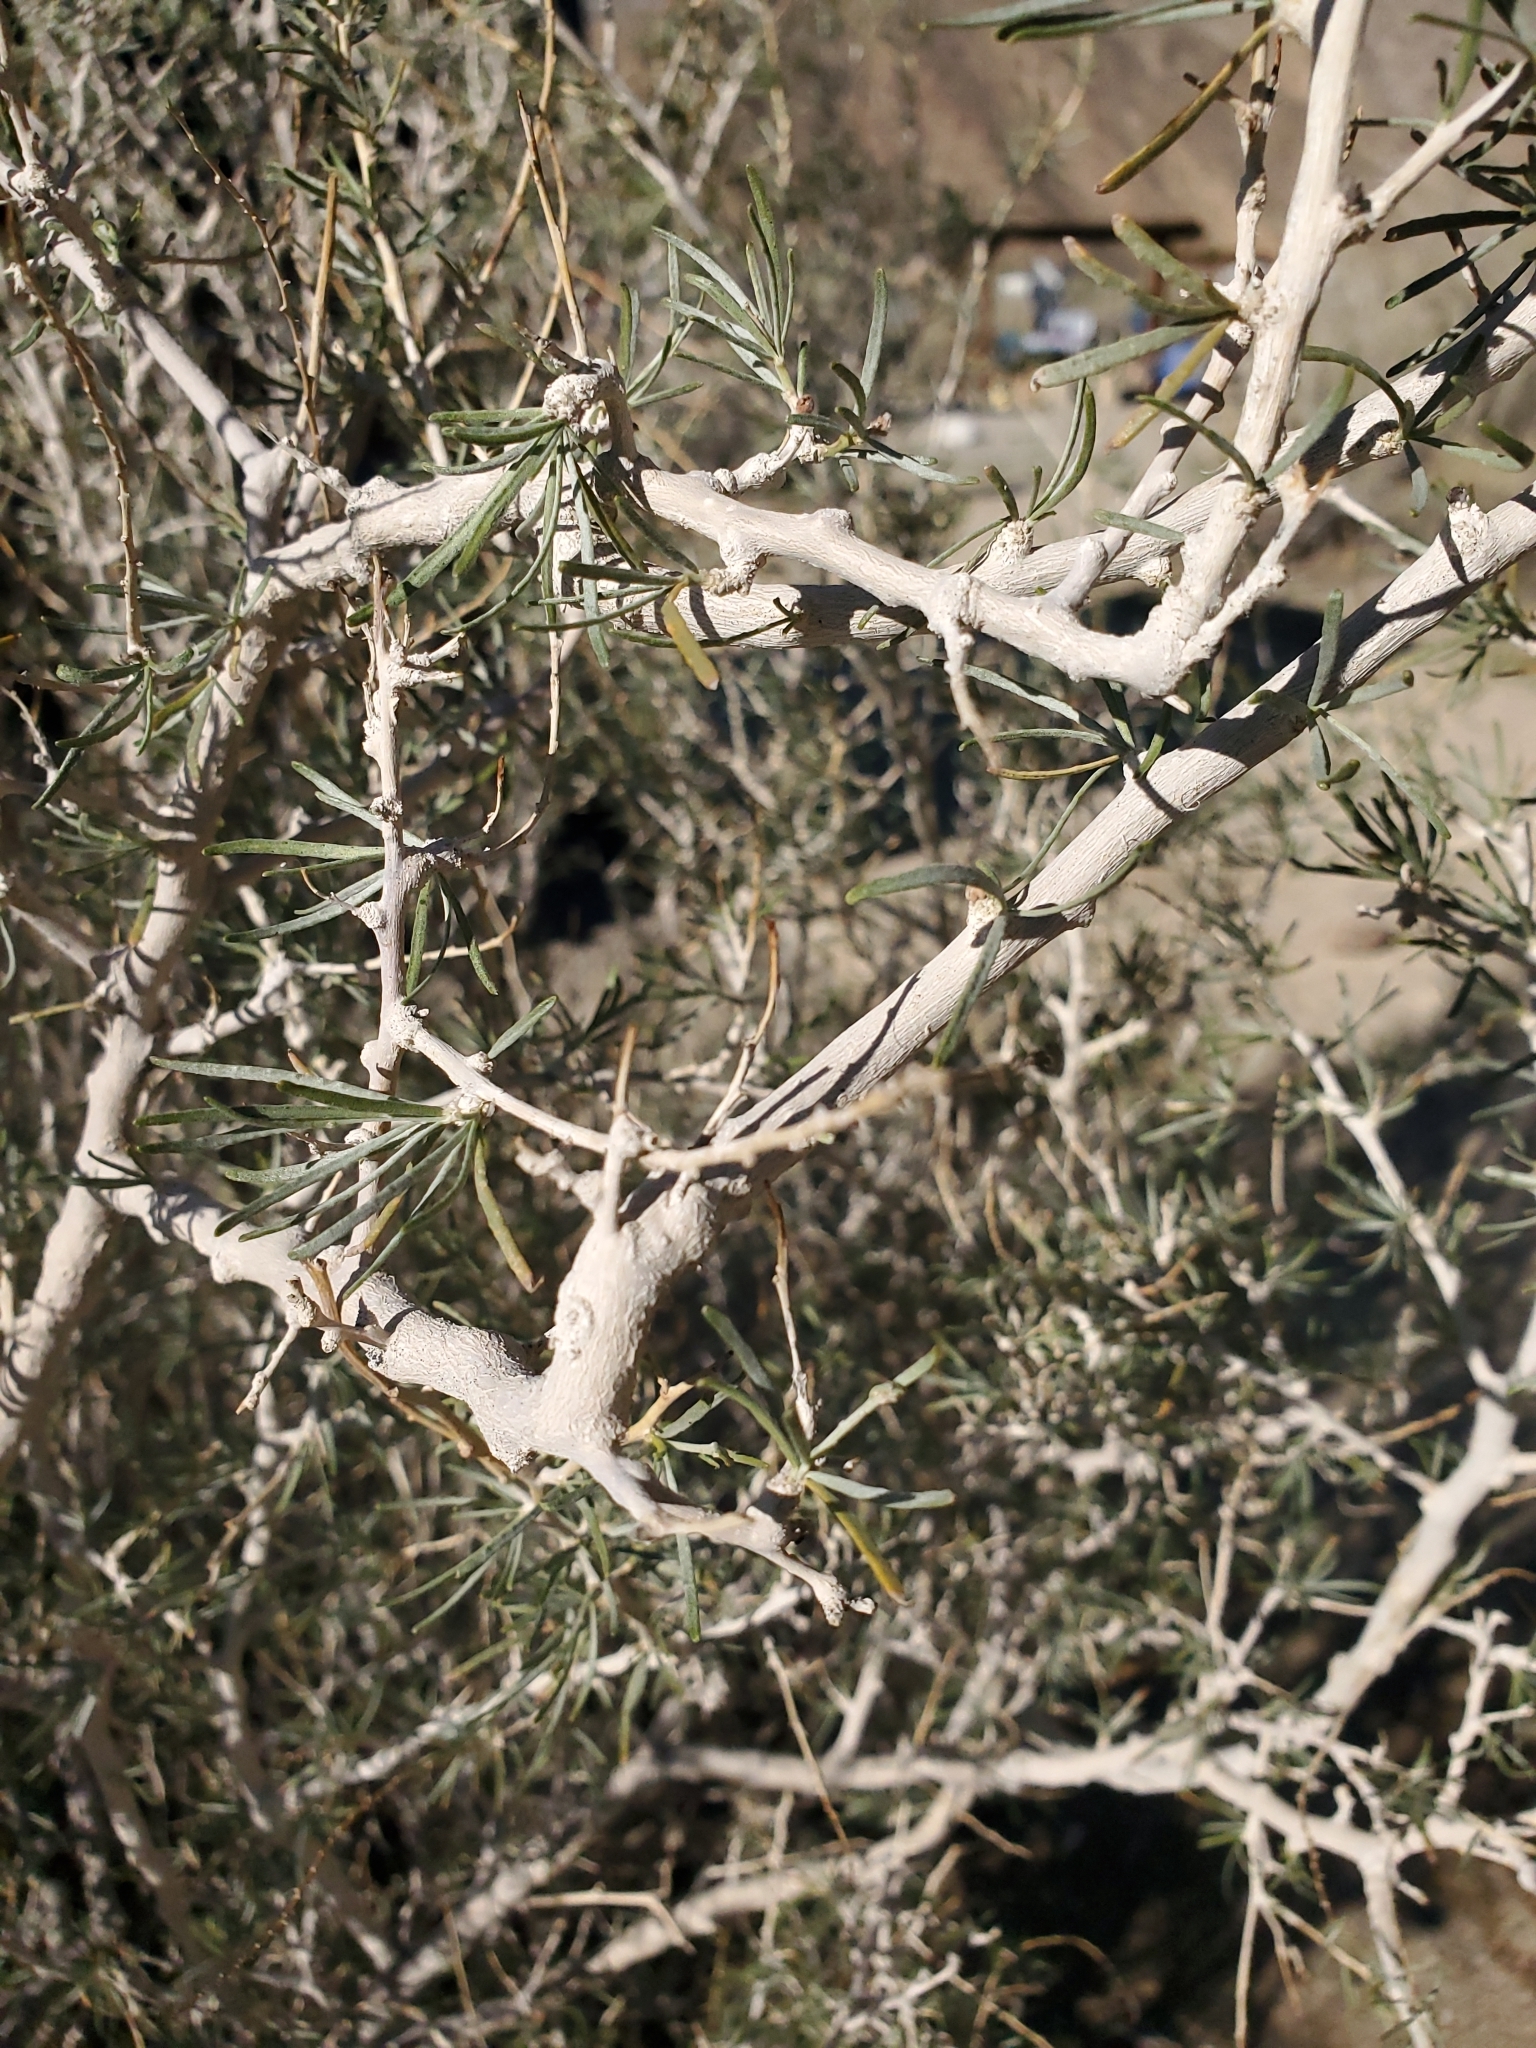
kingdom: Plantae
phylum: Tracheophyta
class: Magnoliopsida
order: Fabales
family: Fabaceae
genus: Psorothamnus
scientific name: Psorothamnus schottii
